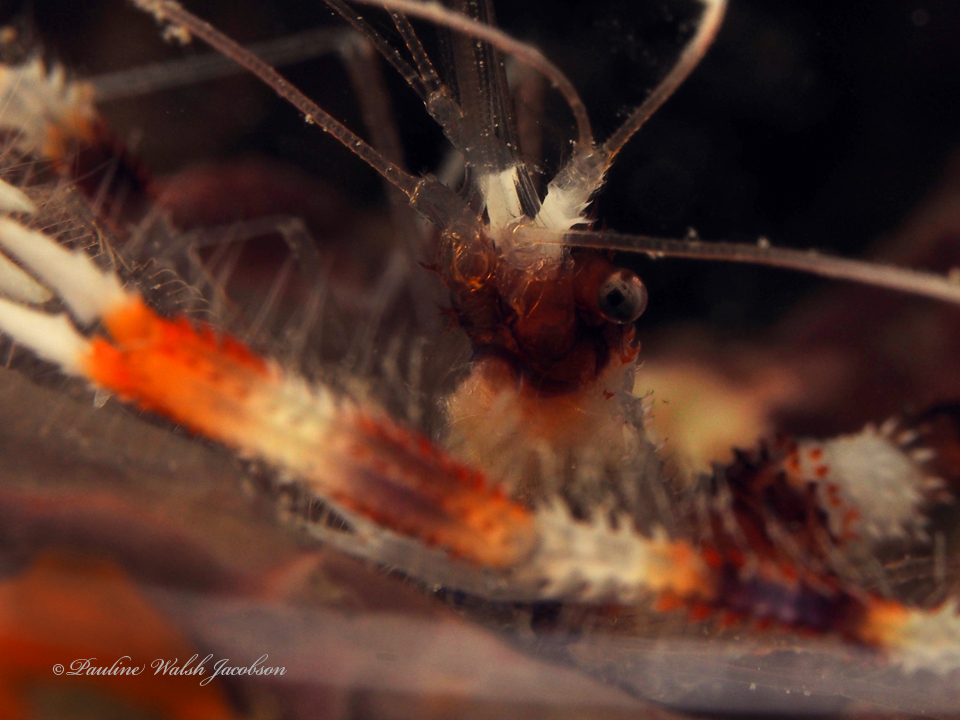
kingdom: Animalia
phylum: Arthropoda
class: Malacostraca
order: Decapoda
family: Stenopodidae
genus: Stenopus
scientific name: Stenopus hispidus
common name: Banded coral shrimp
